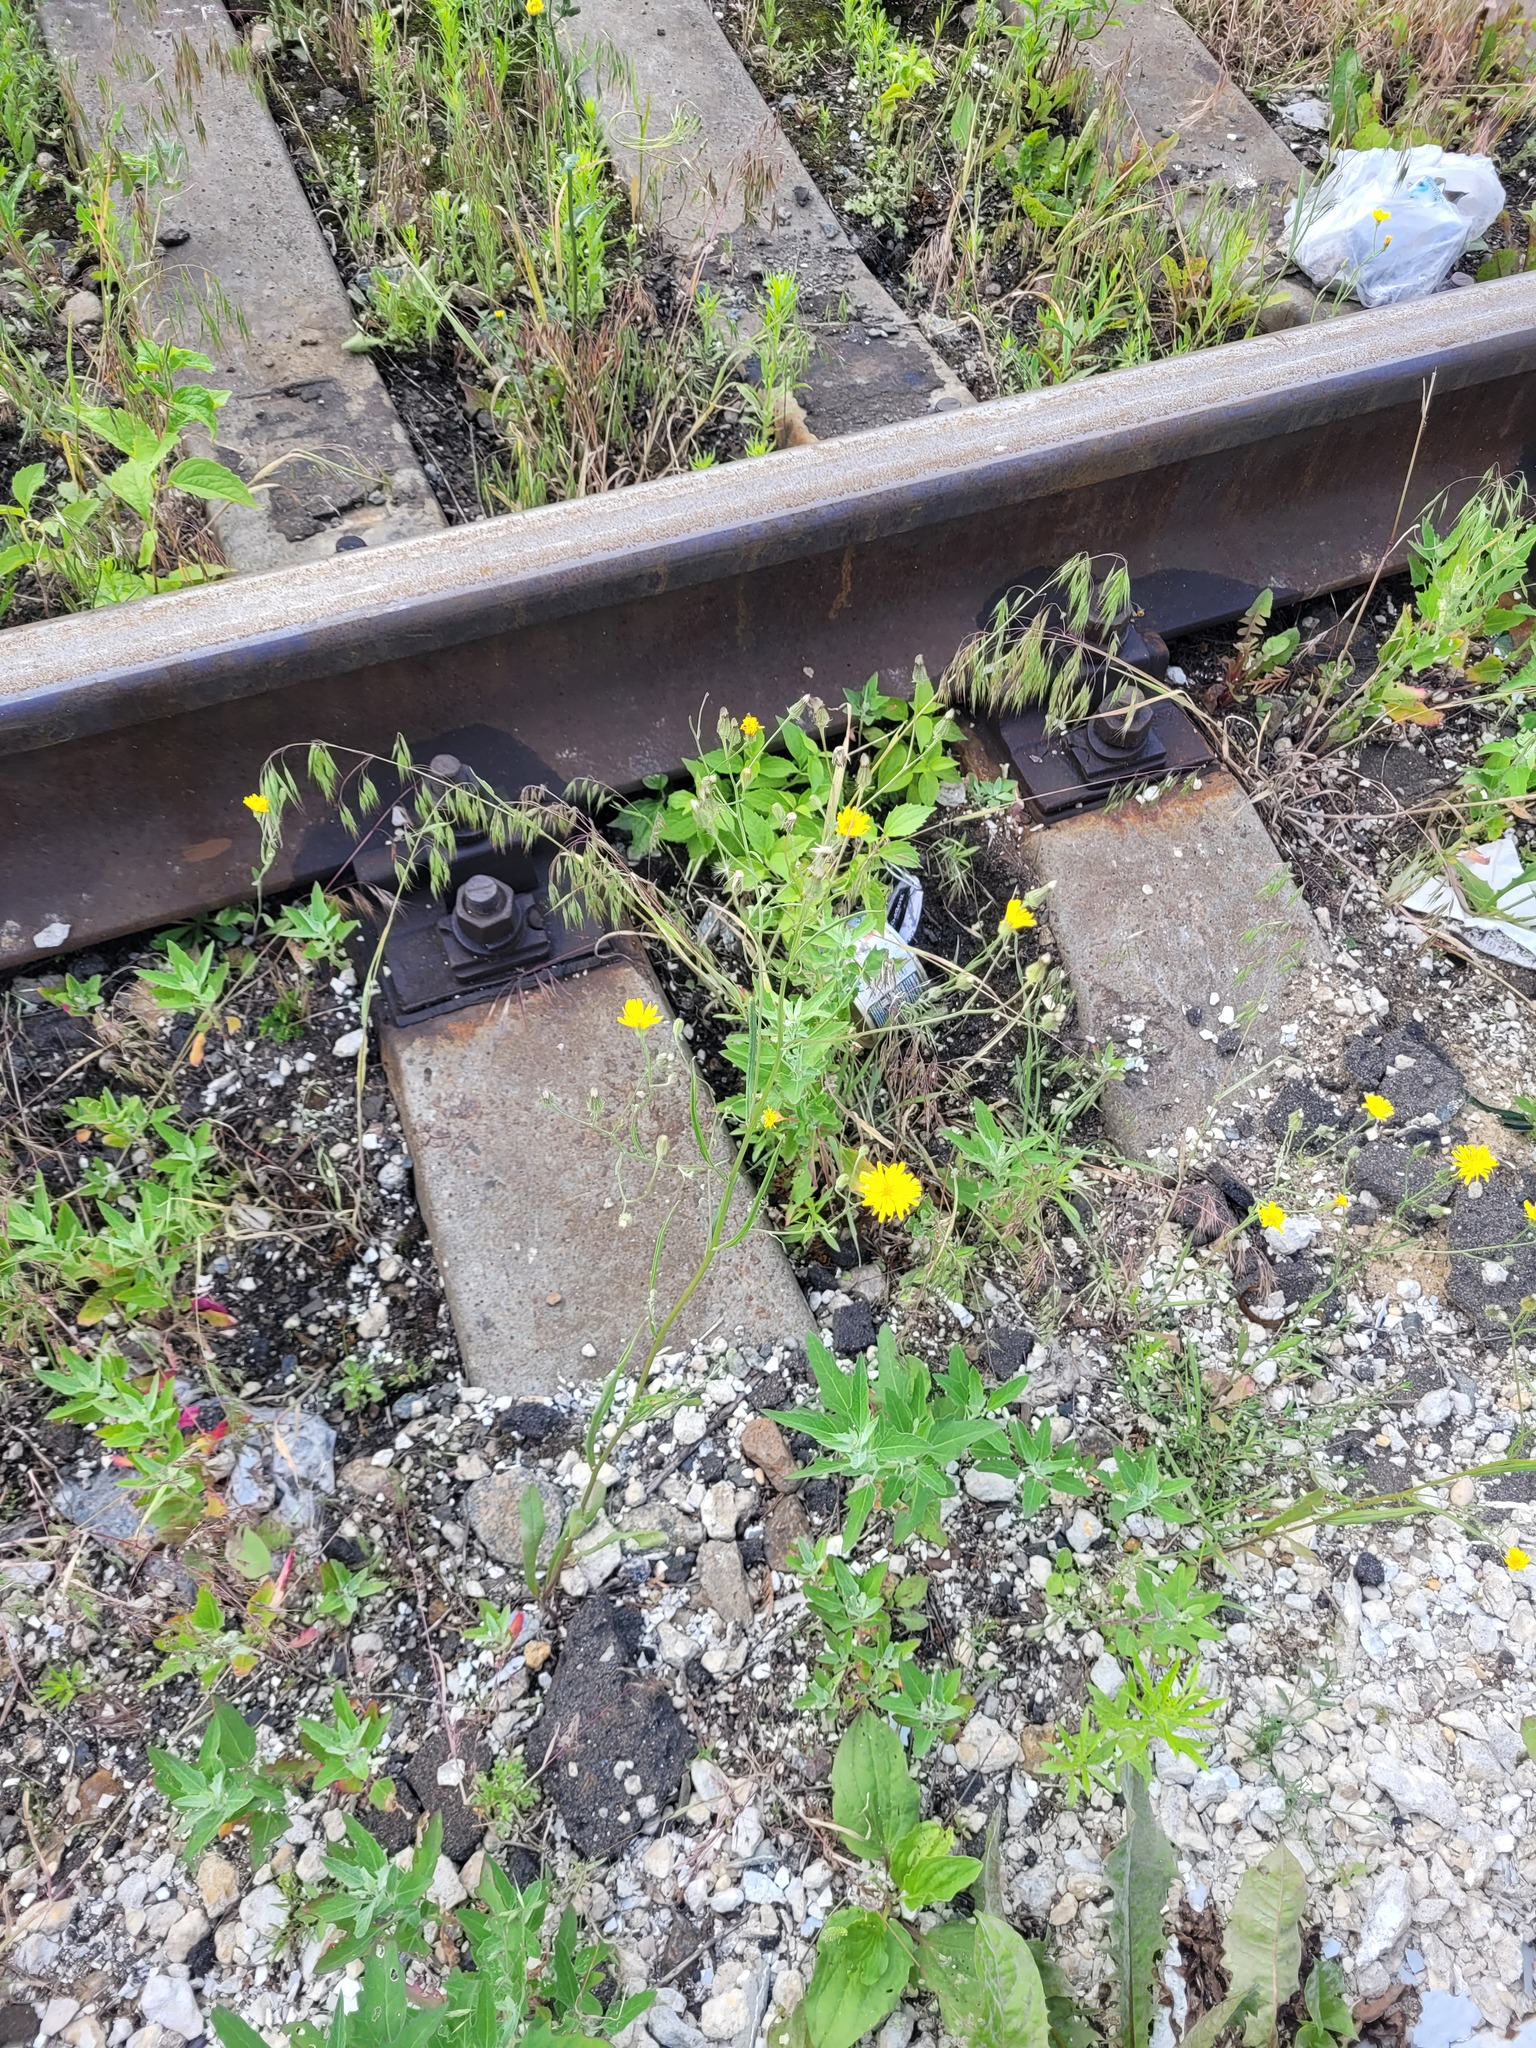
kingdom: Plantae
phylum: Tracheophyta
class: Magnoliopsida
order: Asterales
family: Asteraceae
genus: Crepis
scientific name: Crepis tectorum
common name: Narrow-leaved hawk's-beard
